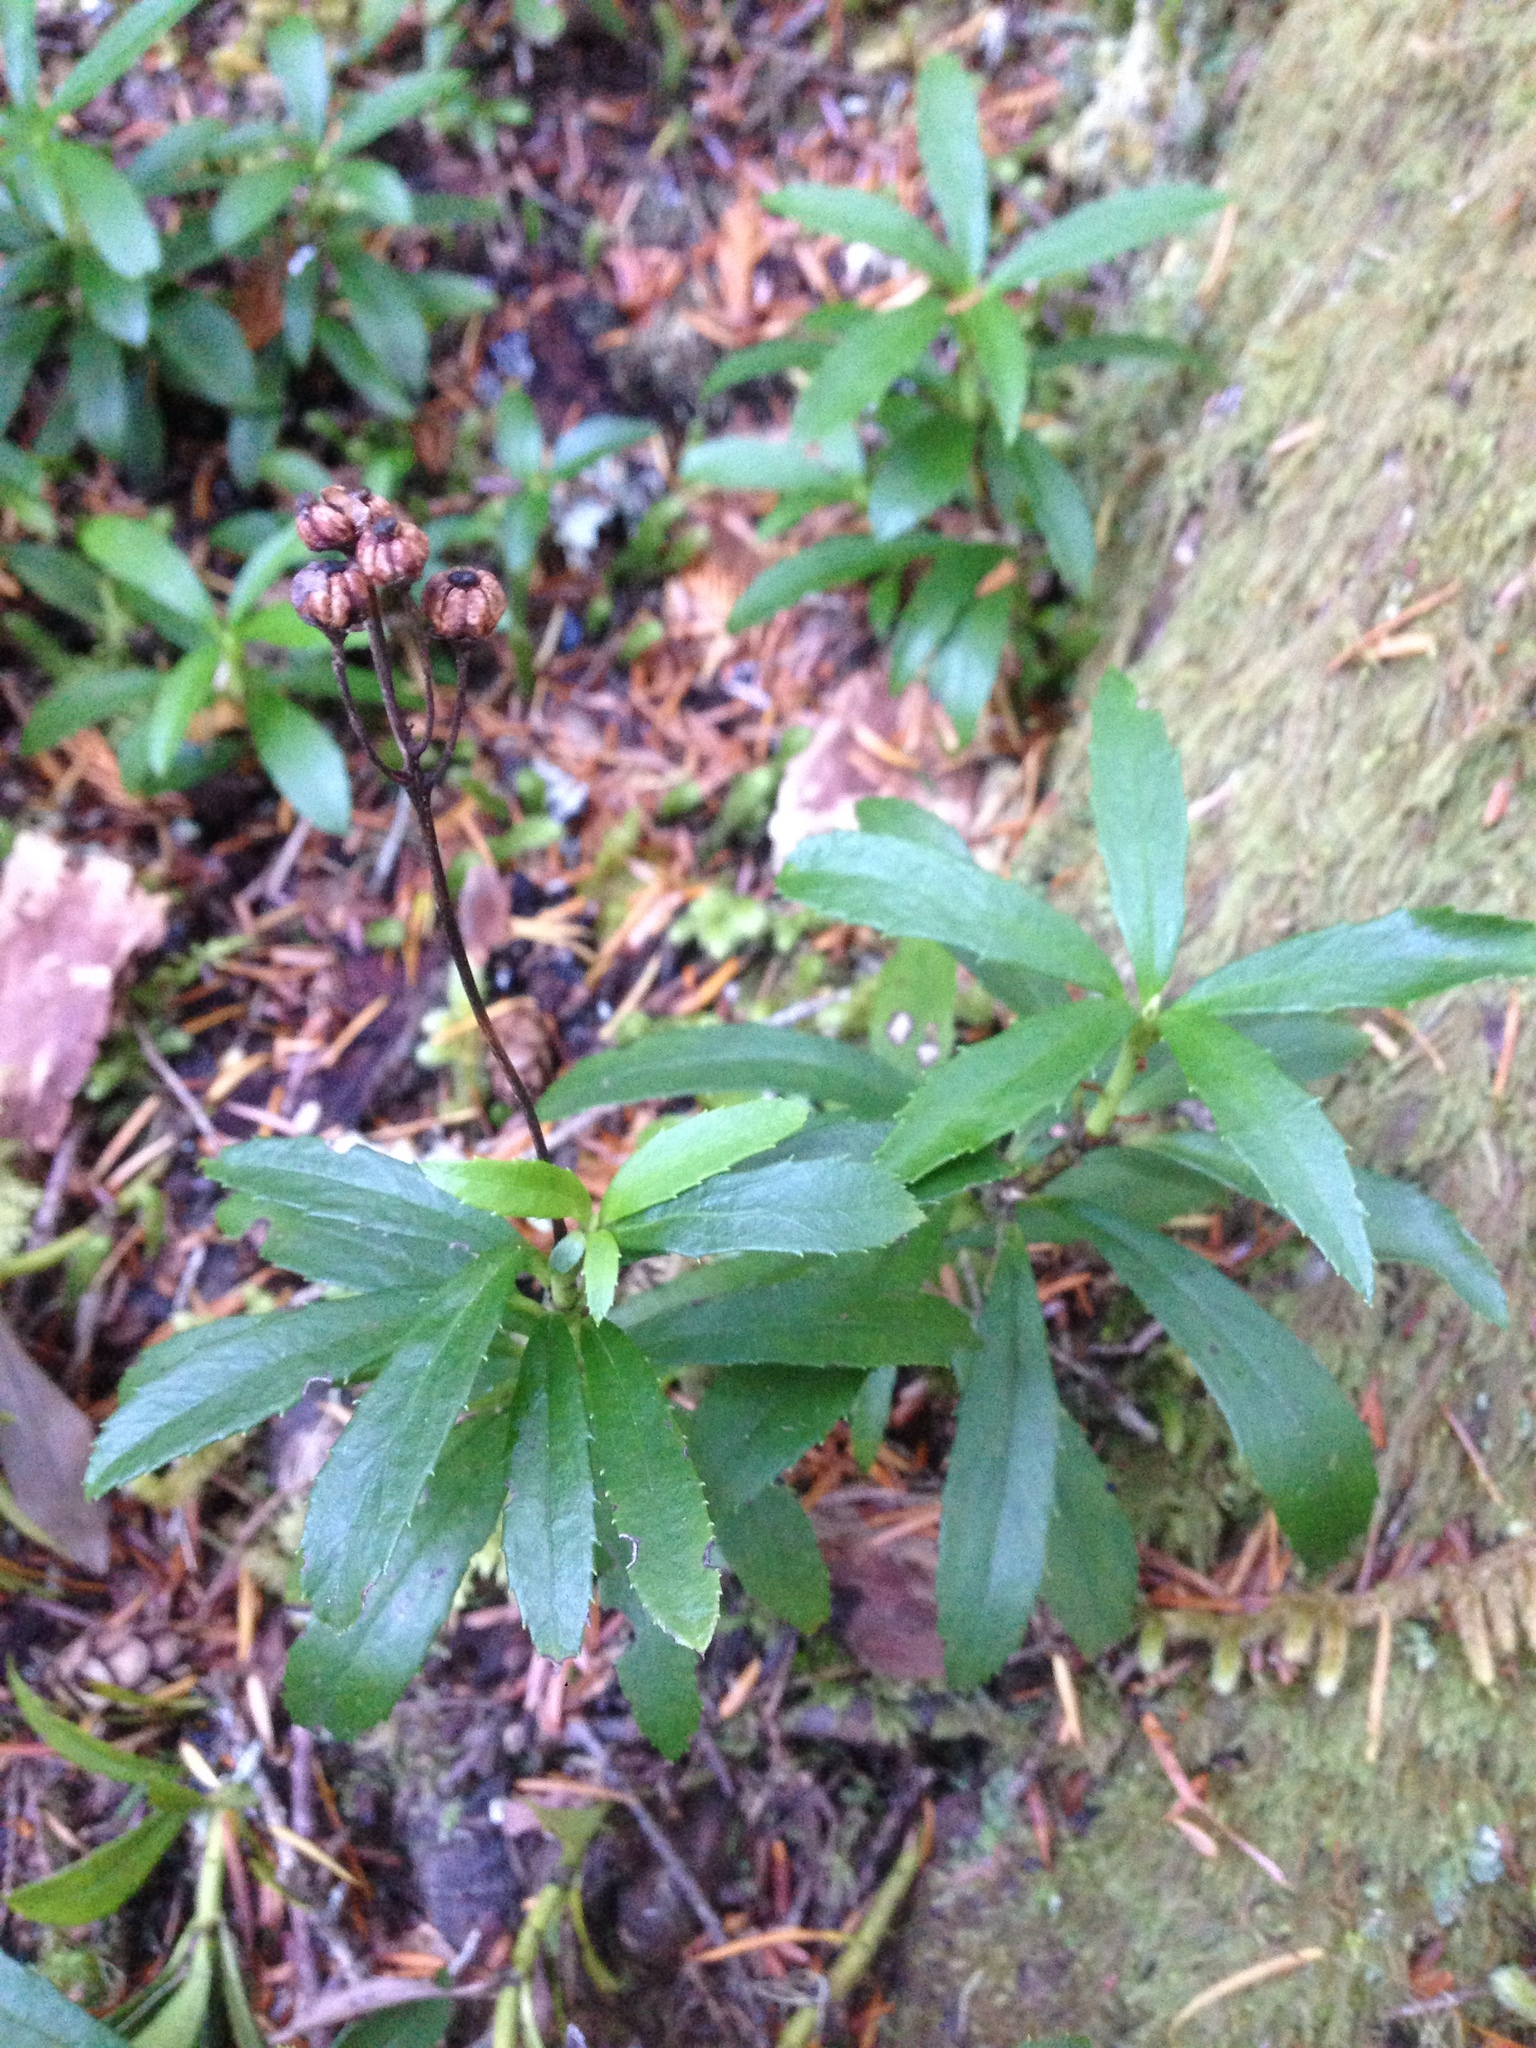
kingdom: Plantae
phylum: Tracheophyta
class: Magnoliopsida
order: Ericales
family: Ericaceae
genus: Chimaphila
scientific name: Chimaphila umbellata
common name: Pipsissewa
